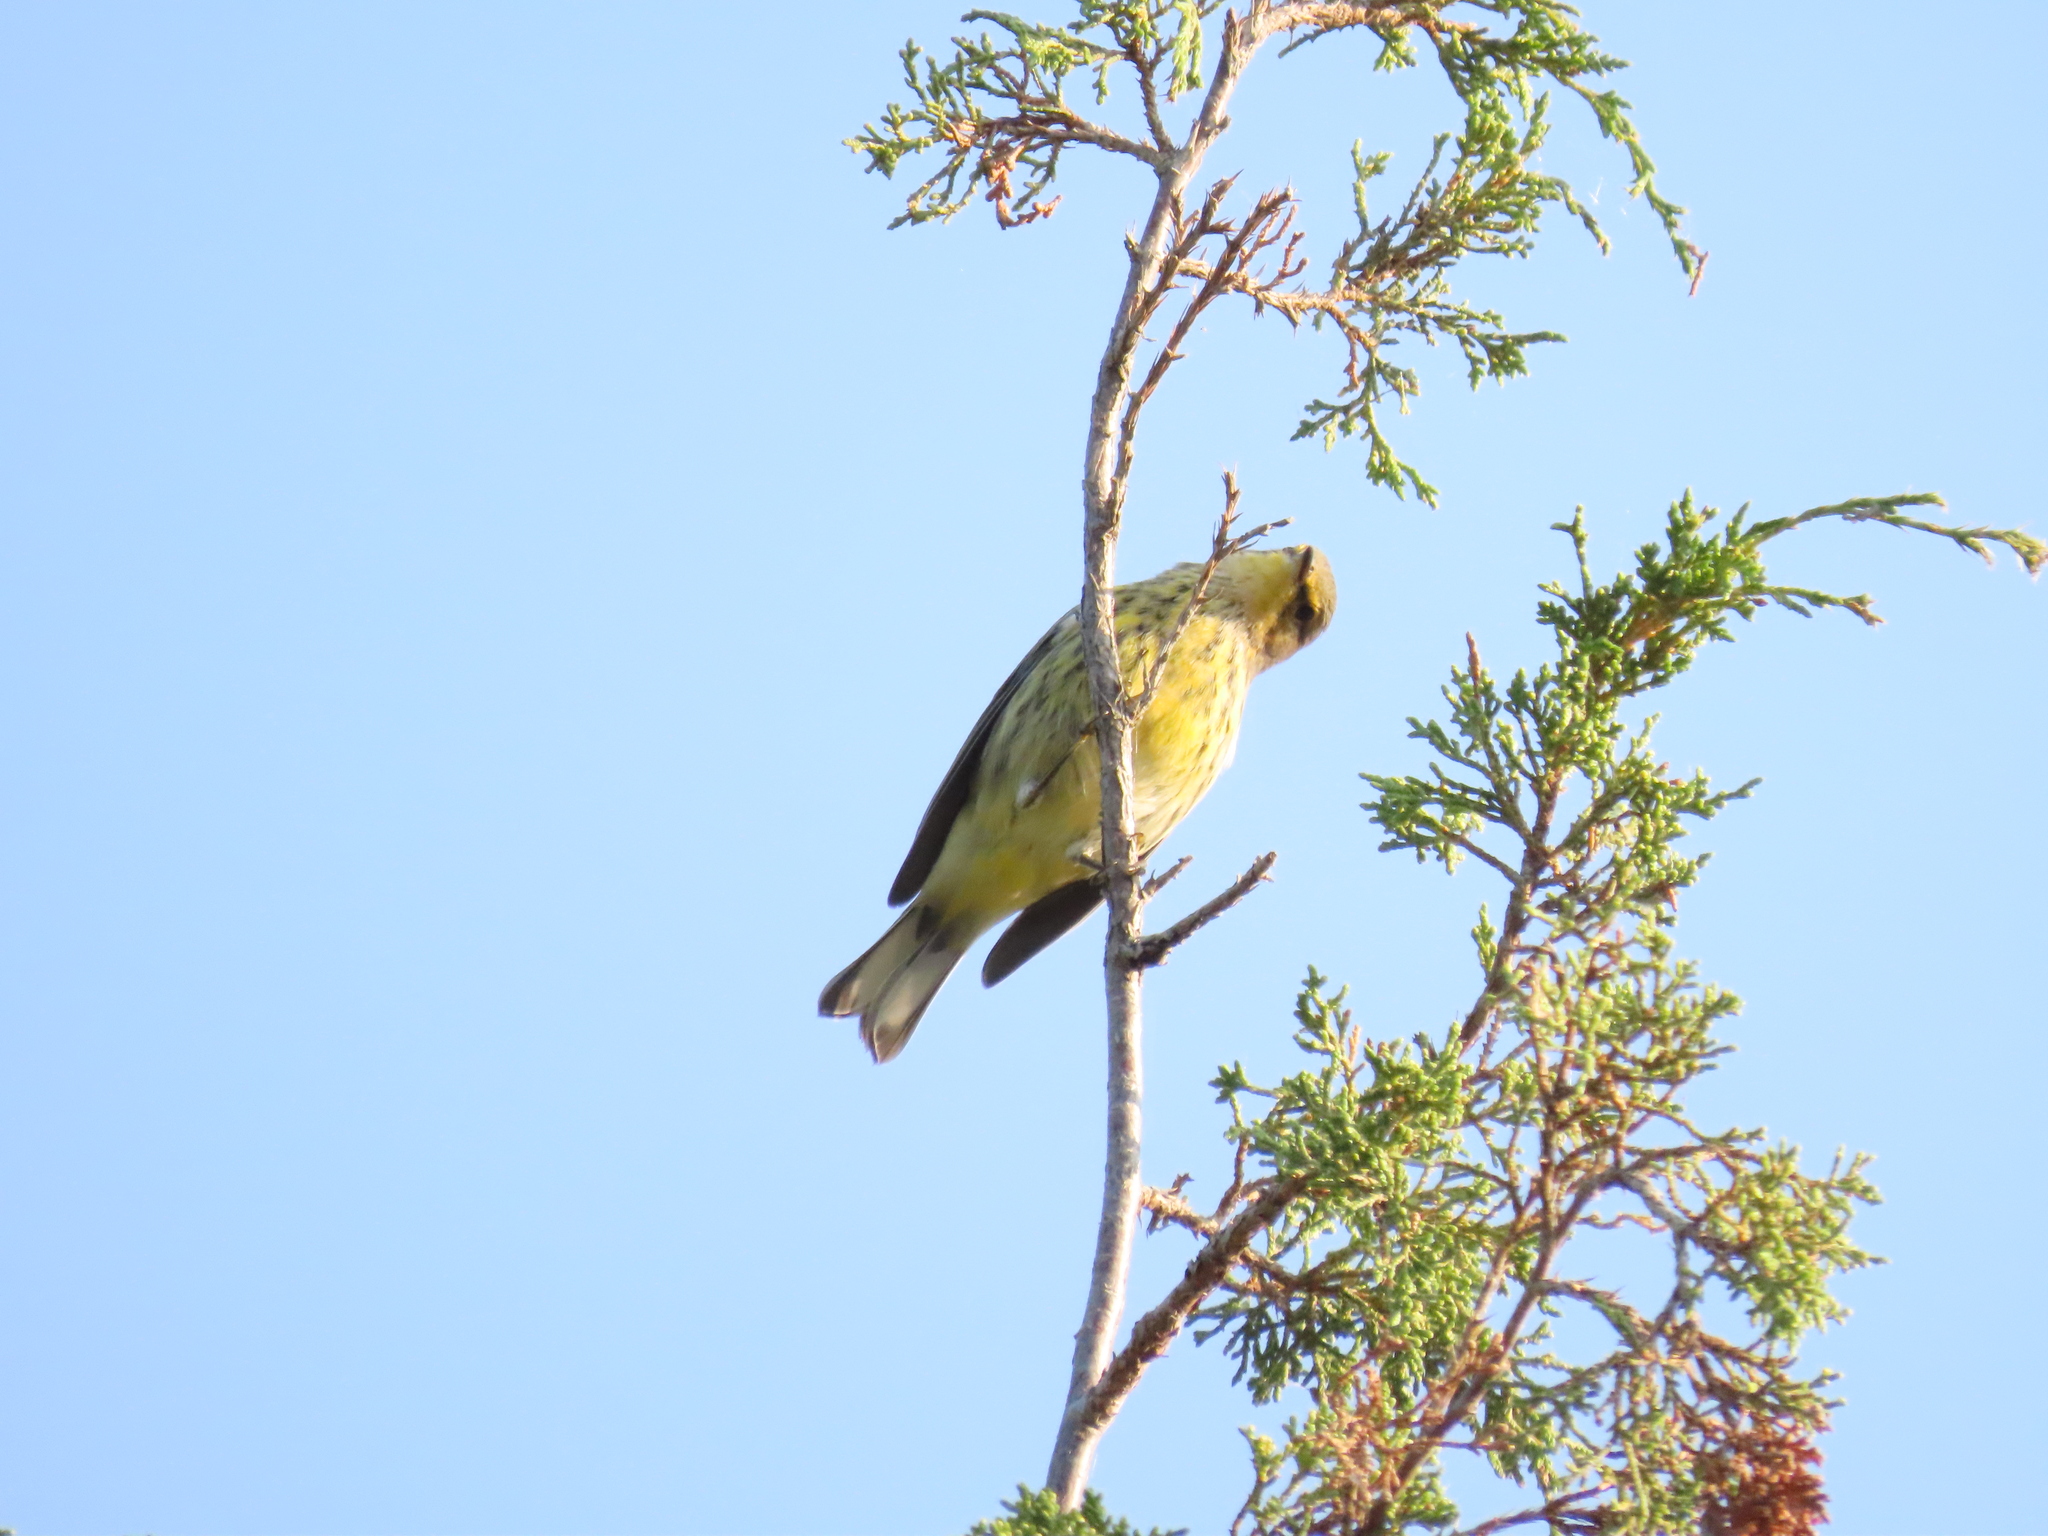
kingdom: Animalia
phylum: Chordata
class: Aves
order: Passeriformes
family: Parulidae
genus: Setophaga
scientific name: Setophaga tigrina
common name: Cape may warbler
